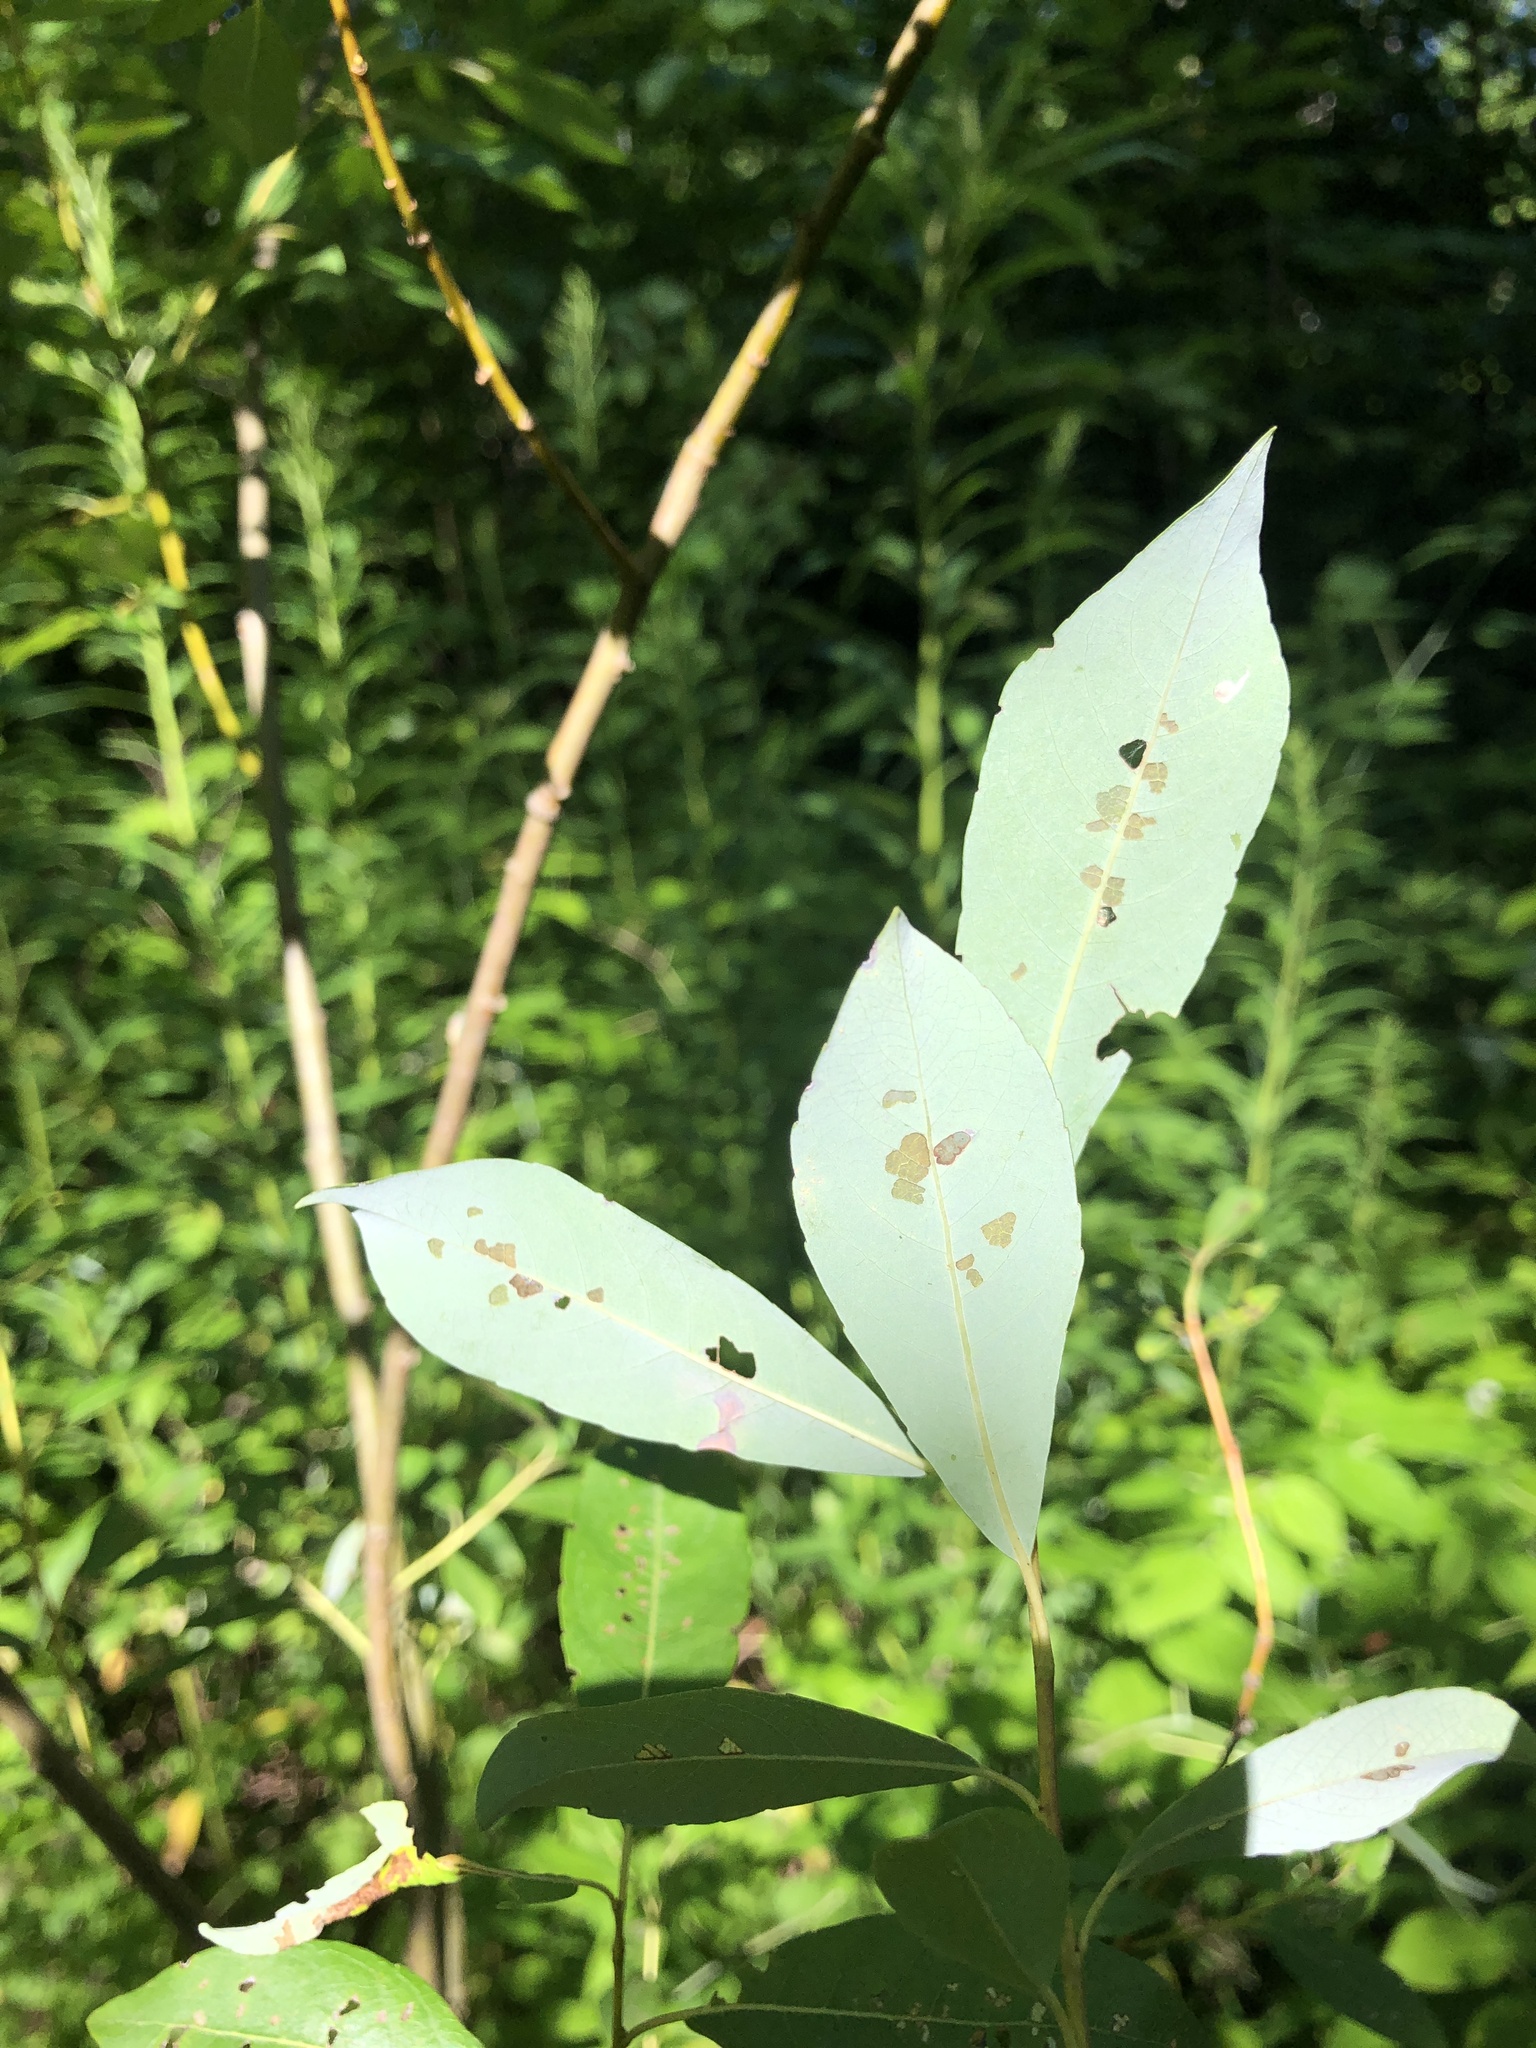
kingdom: Plantae
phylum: Tracheophyta
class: Magnoliopsida
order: Malpighiales
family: Salicaceae
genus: Salix
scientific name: Salix discolor
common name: Glaucous willow
